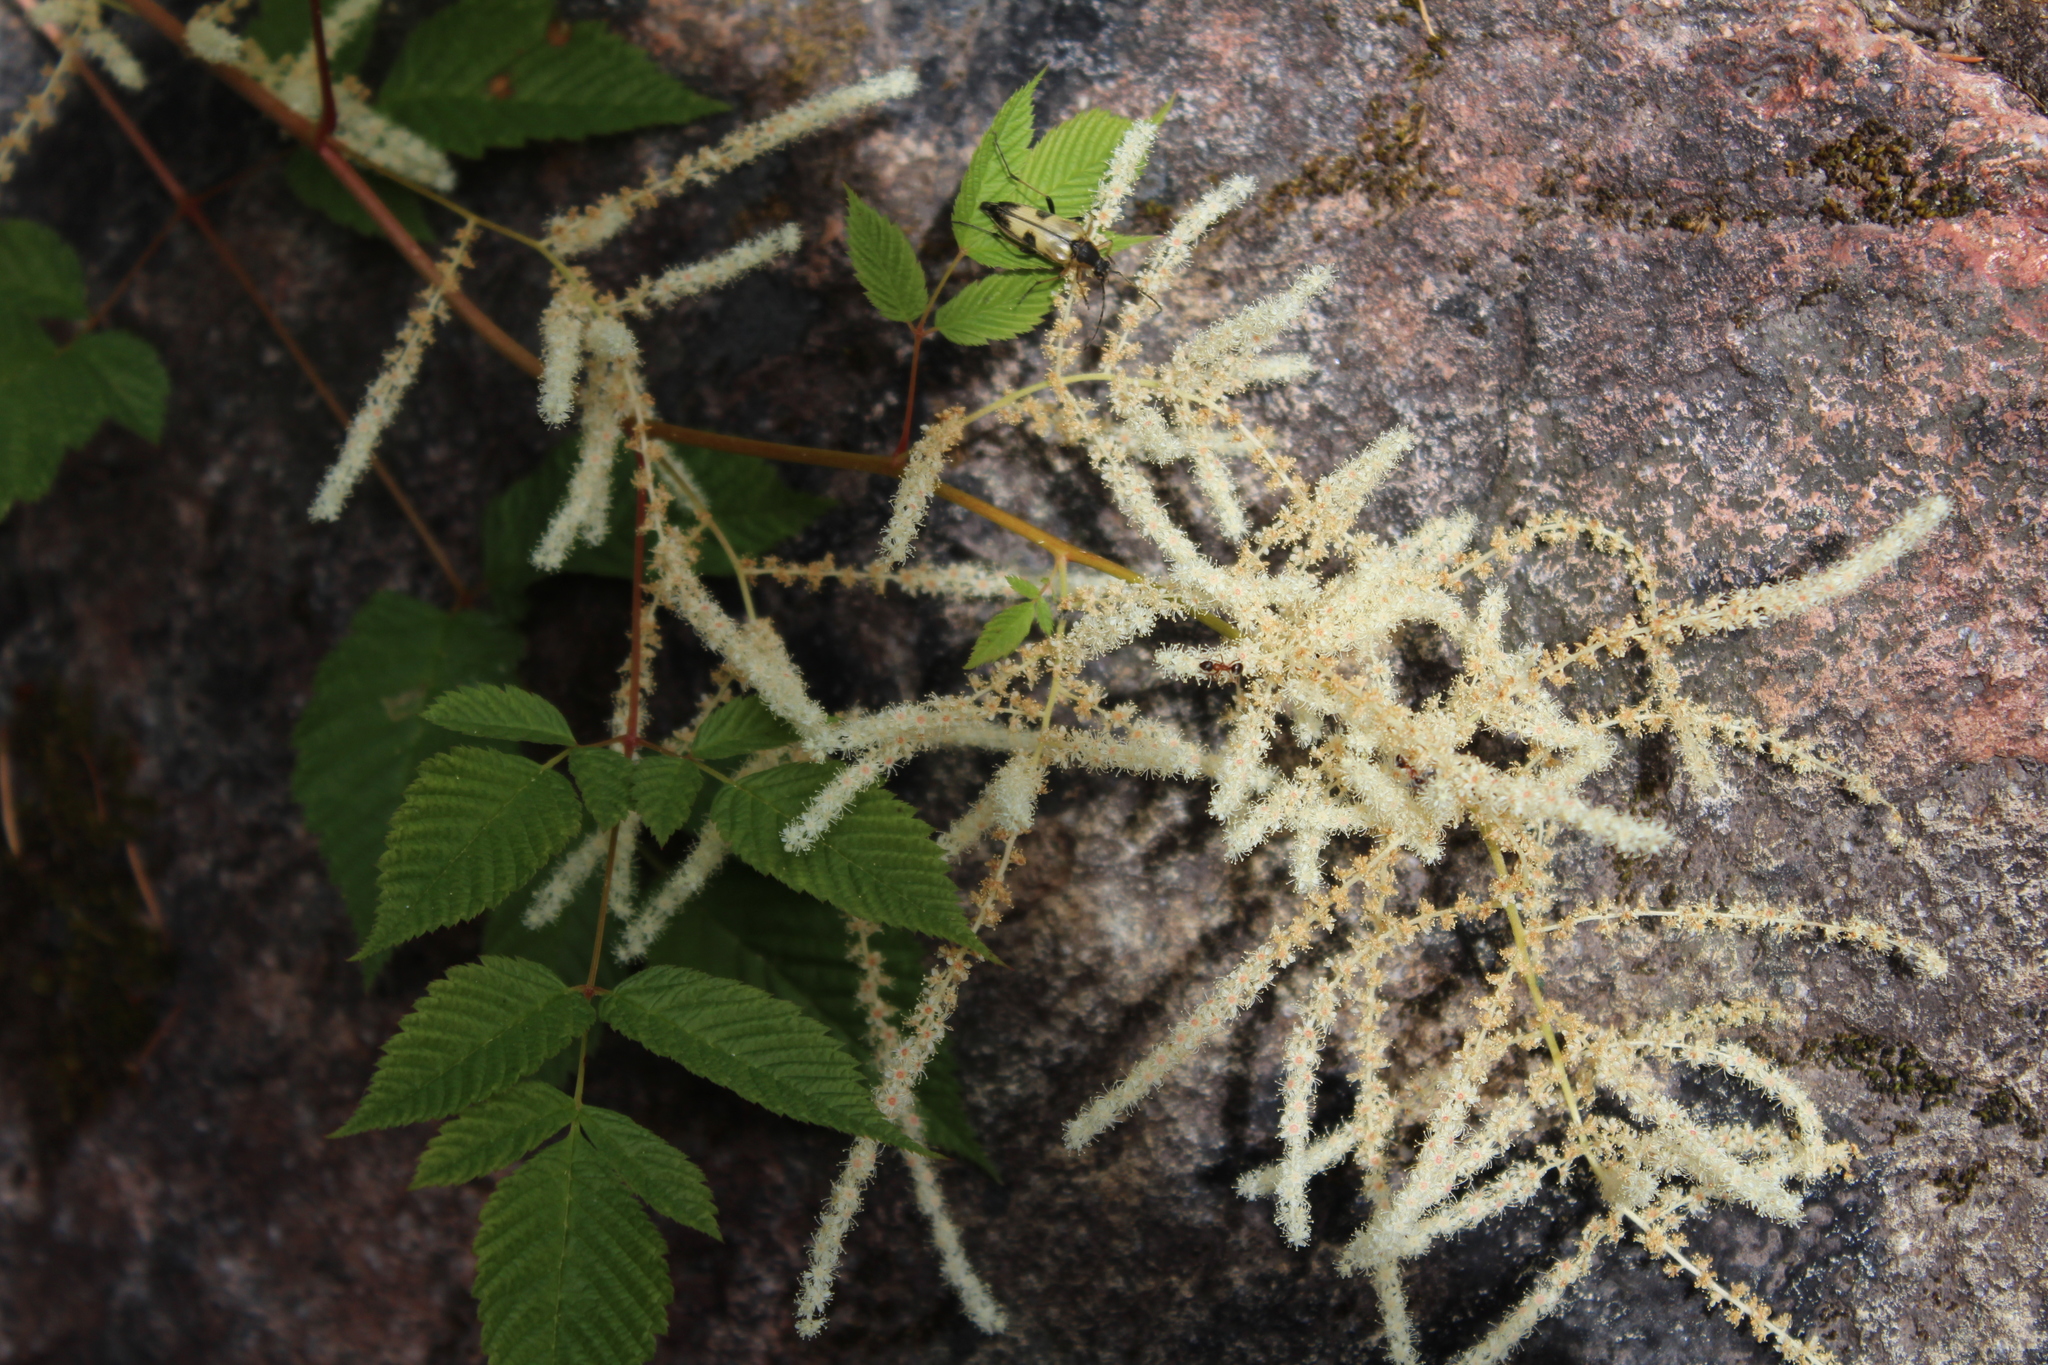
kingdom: Plantae
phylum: Tracheophyta
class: Magnoliopsida
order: Rosales
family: Rosaceae
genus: Aruncus
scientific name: Aruncus dioicus
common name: Buck's-beard
